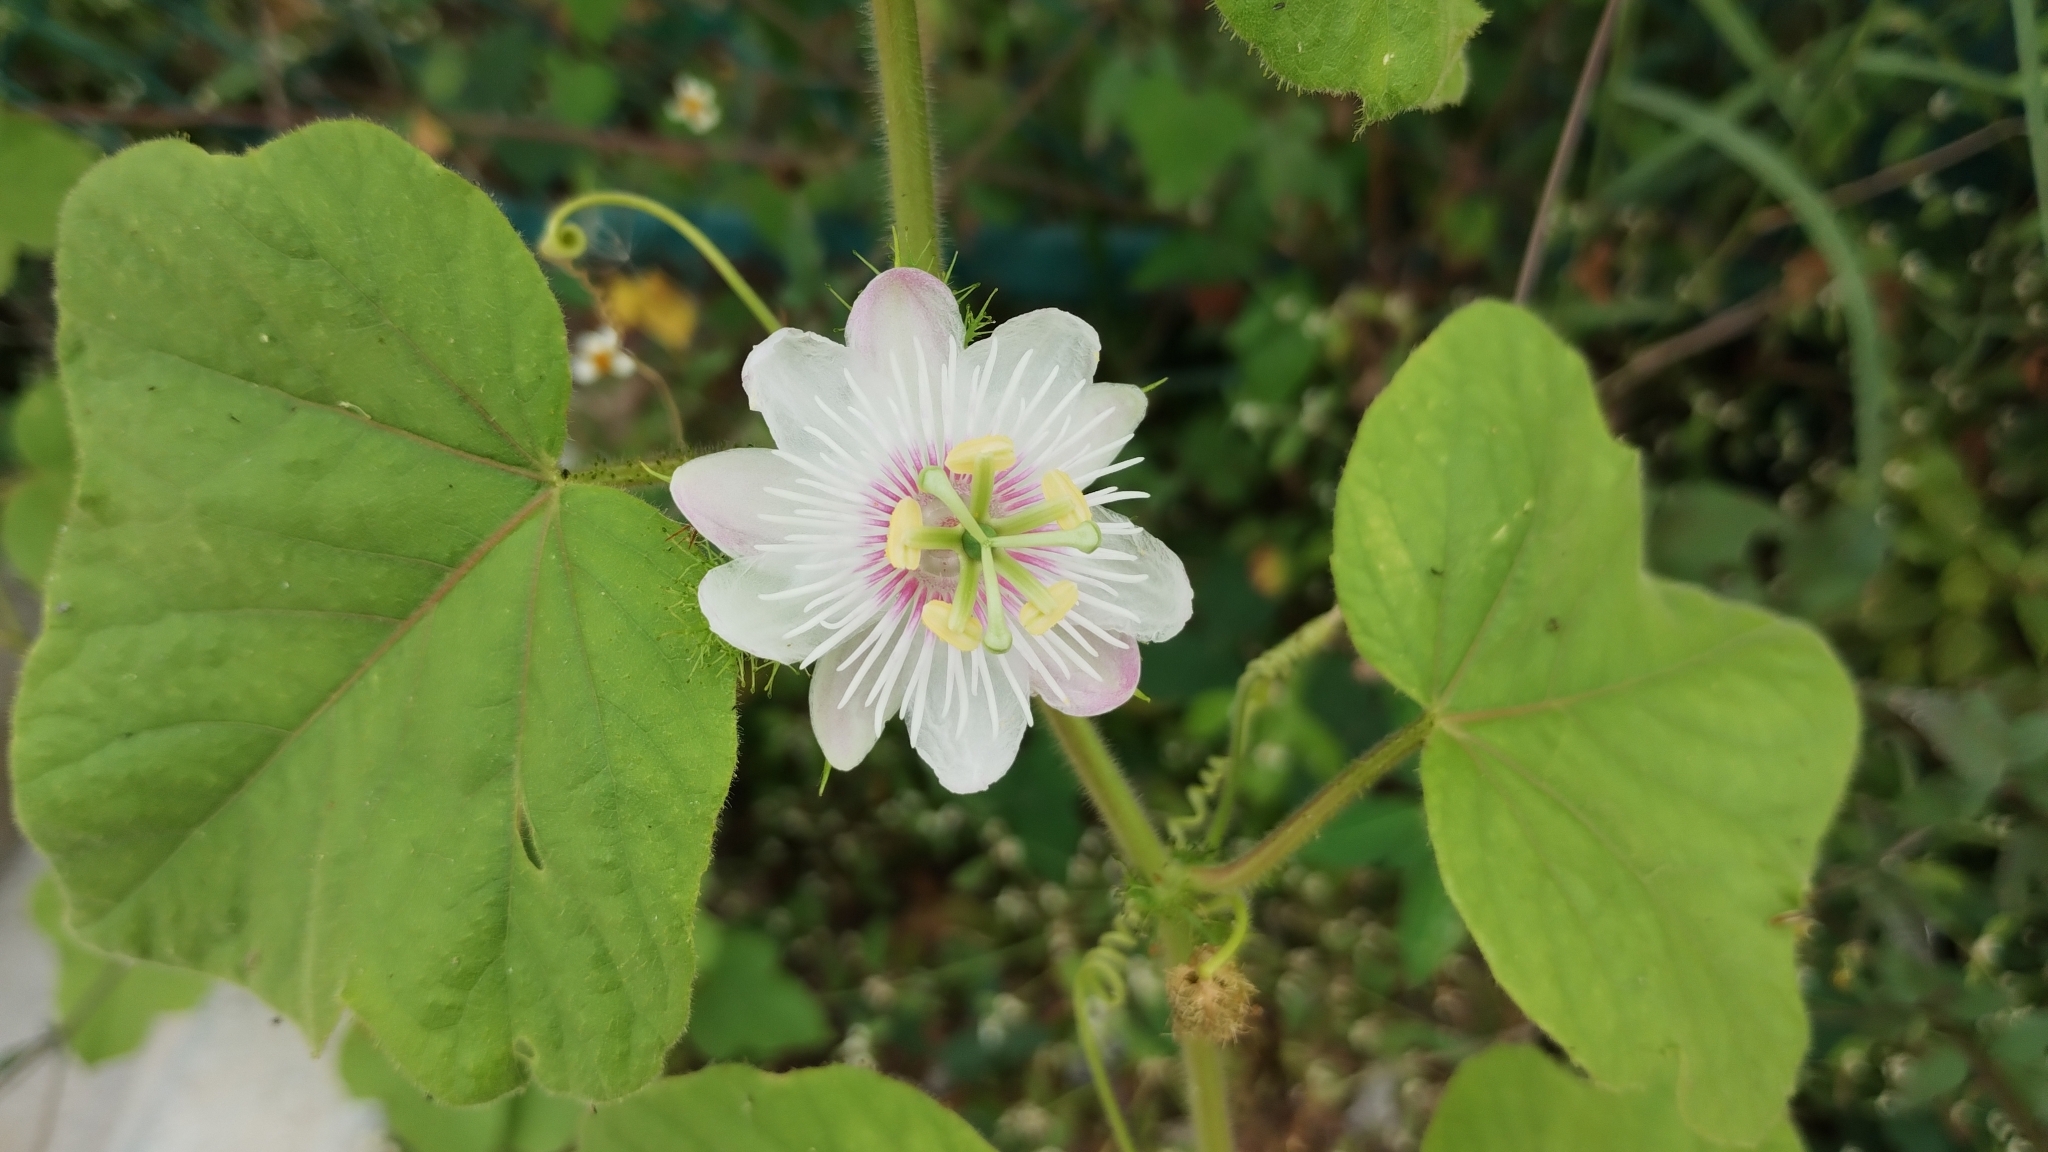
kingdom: Plantae
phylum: Tracheophyta
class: Magnoliopsida
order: Malpighiales
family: Passifloraceae
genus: Passiflora
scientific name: Passiflora vesicaria
